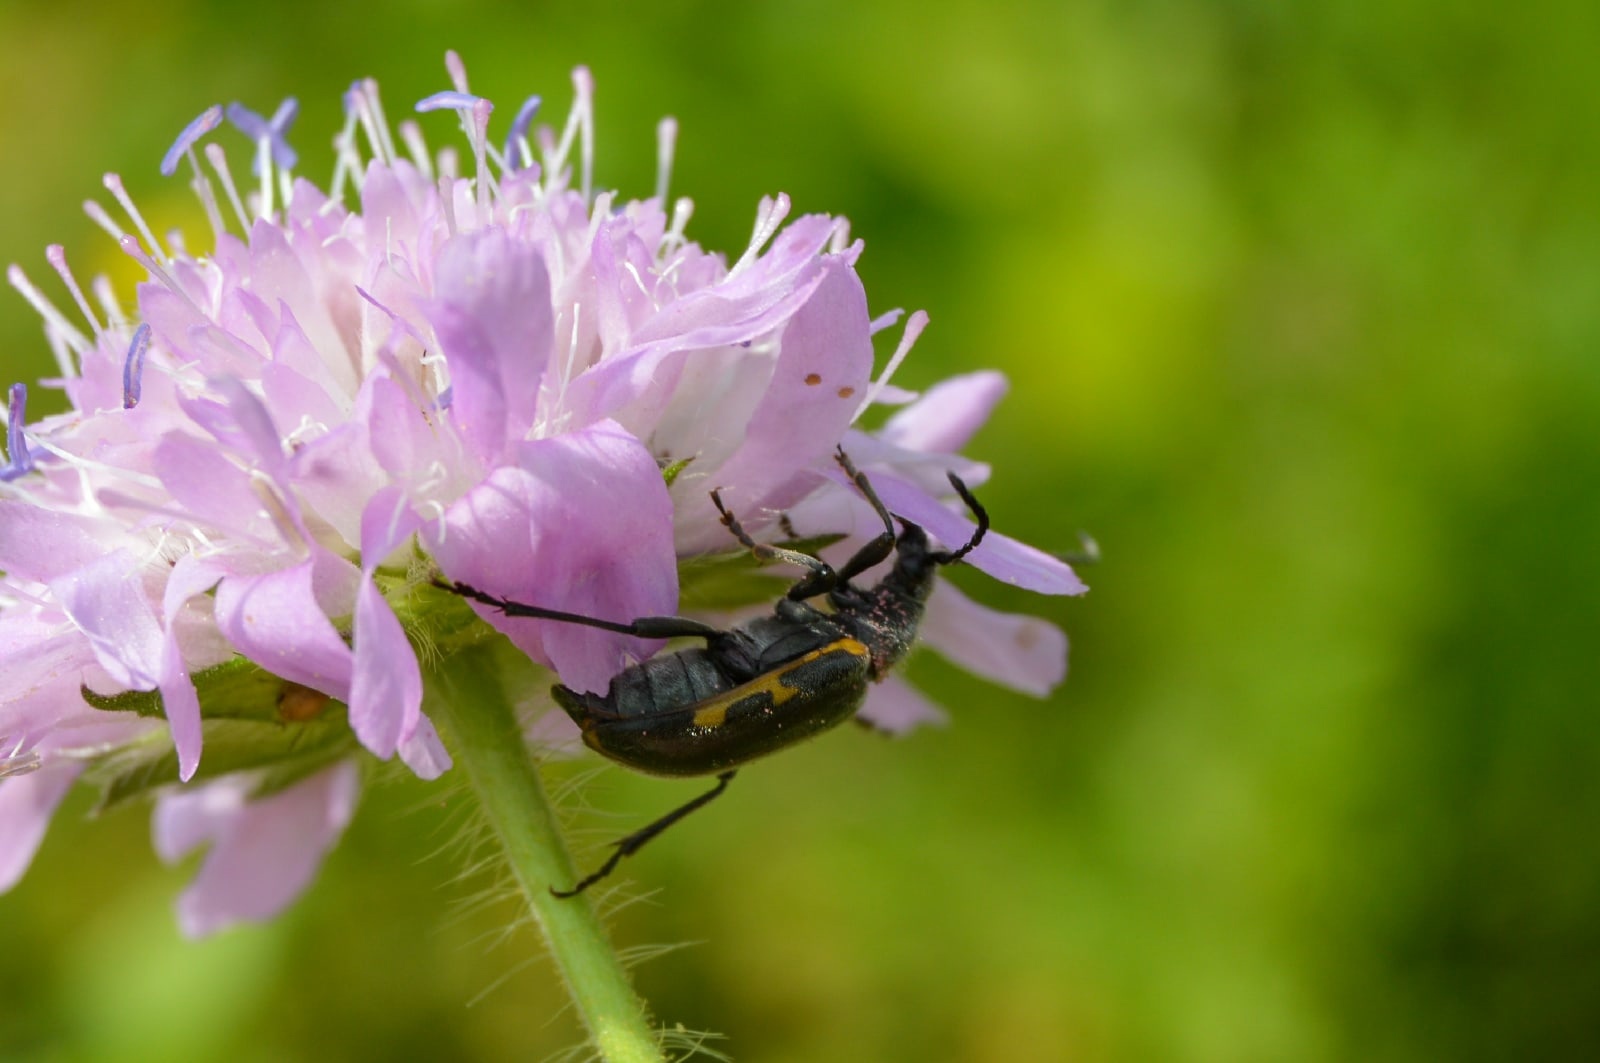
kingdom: Animalia
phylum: Arthropoda
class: Insecta
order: Coleoptera
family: Cerambycidae
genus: Brachyta
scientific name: Brachyta interrogationis
